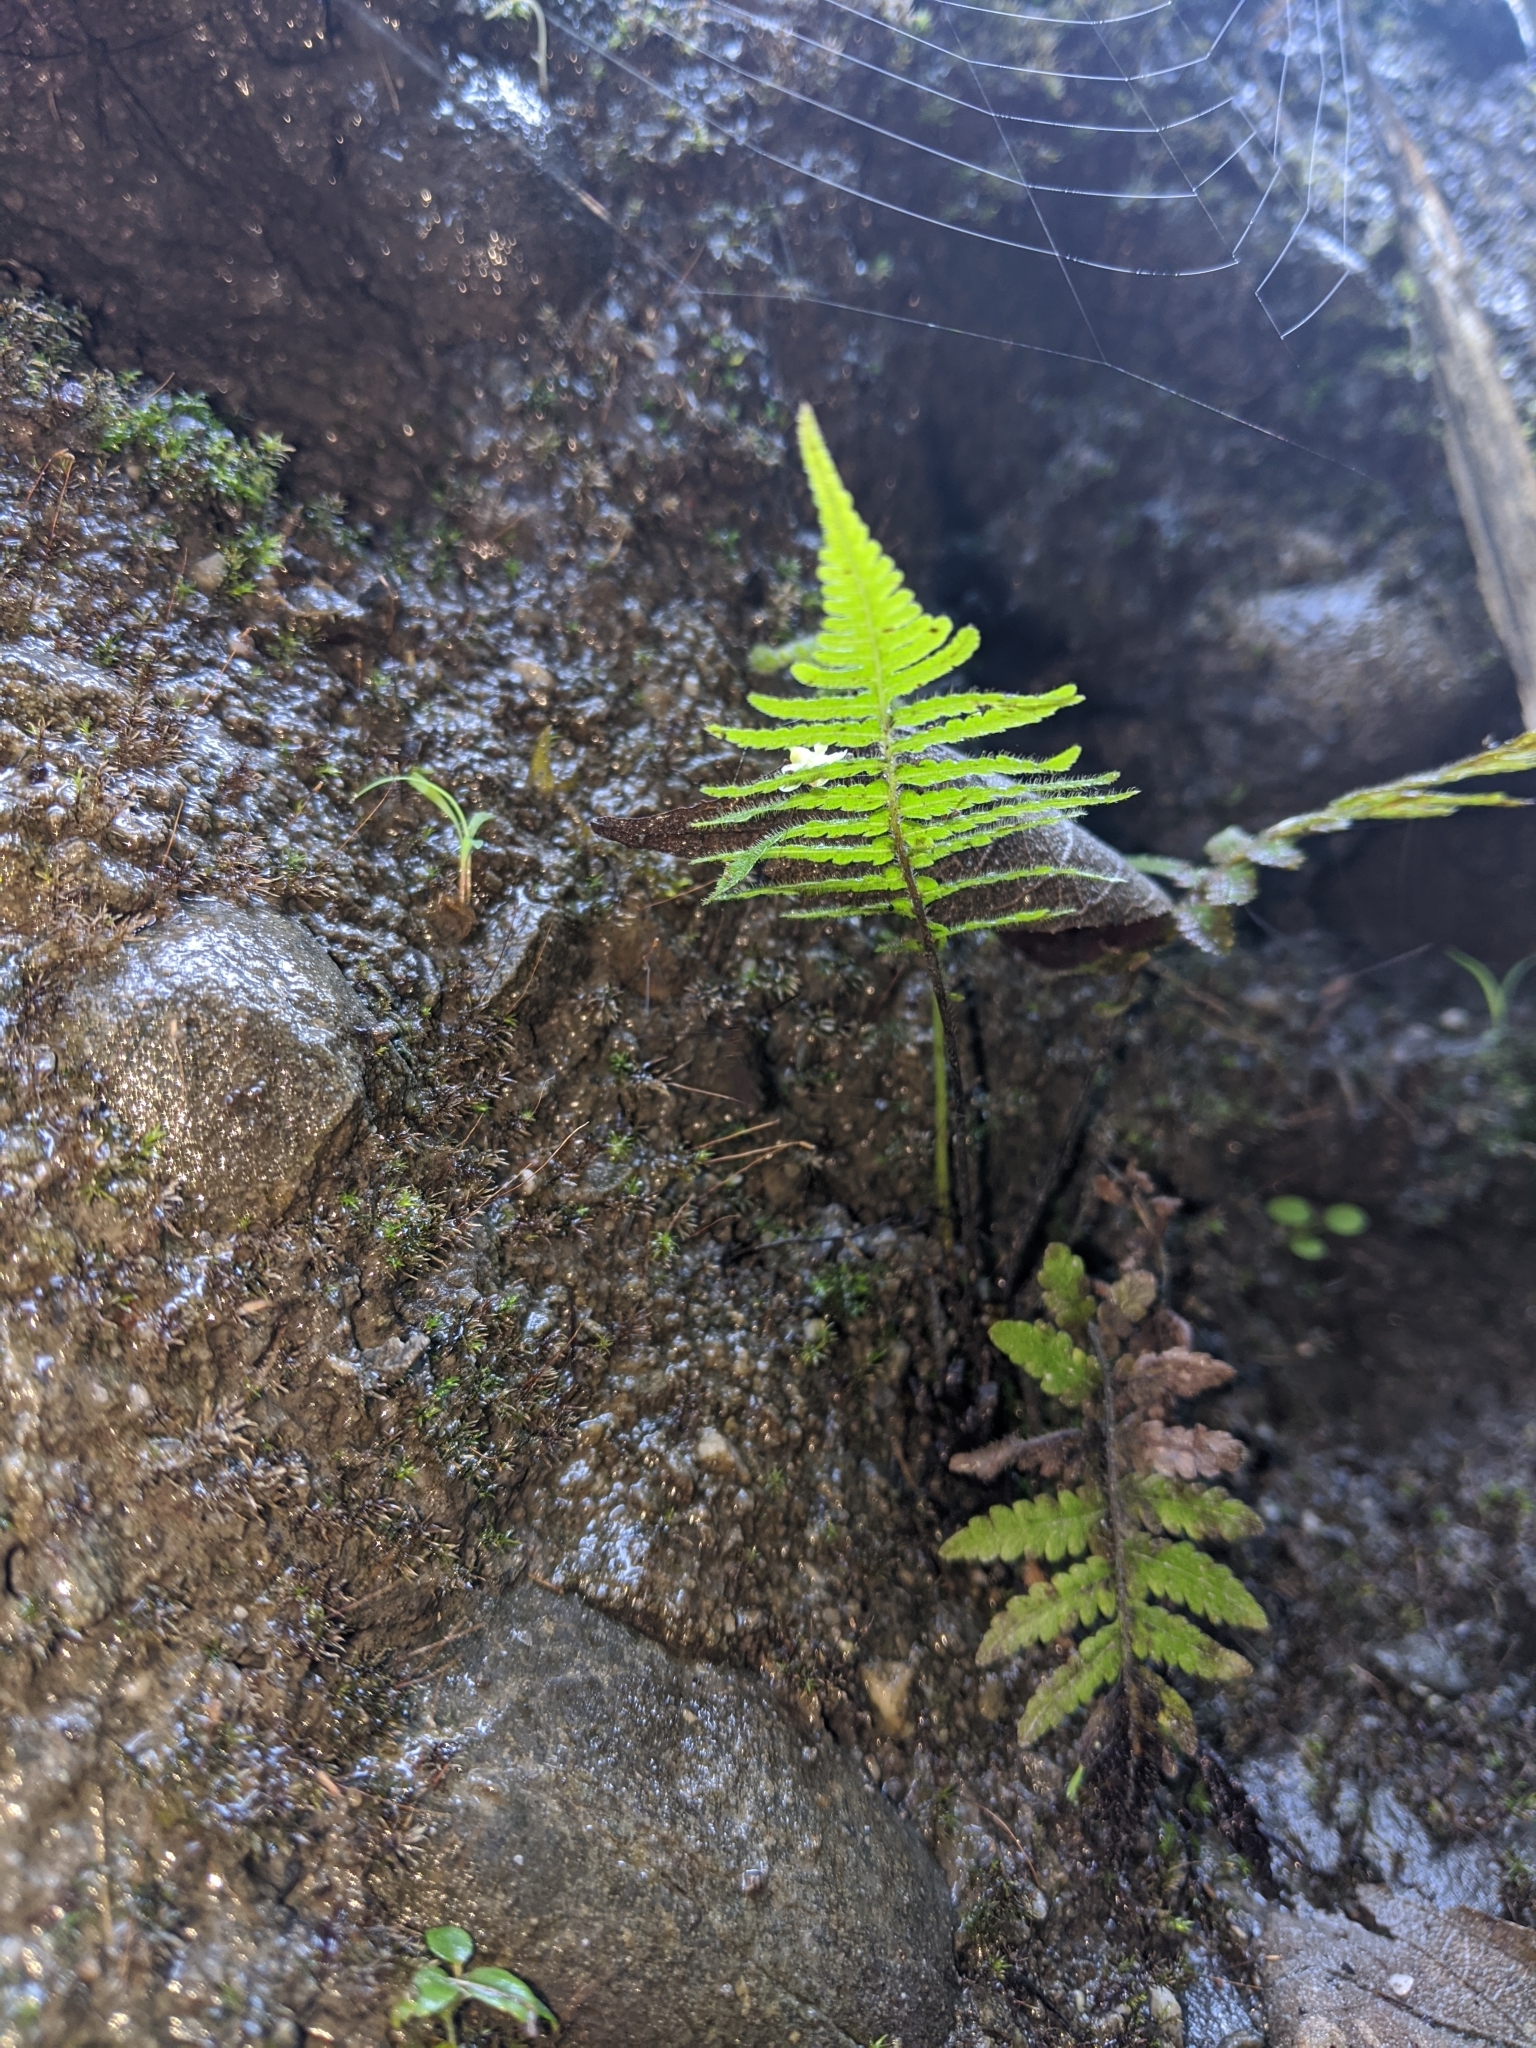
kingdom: Plantae
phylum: Tracheophyta
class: Polypodiopsida
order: Polypodiales
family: Thelypteridaceae
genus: Christella
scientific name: Christella parasitica
